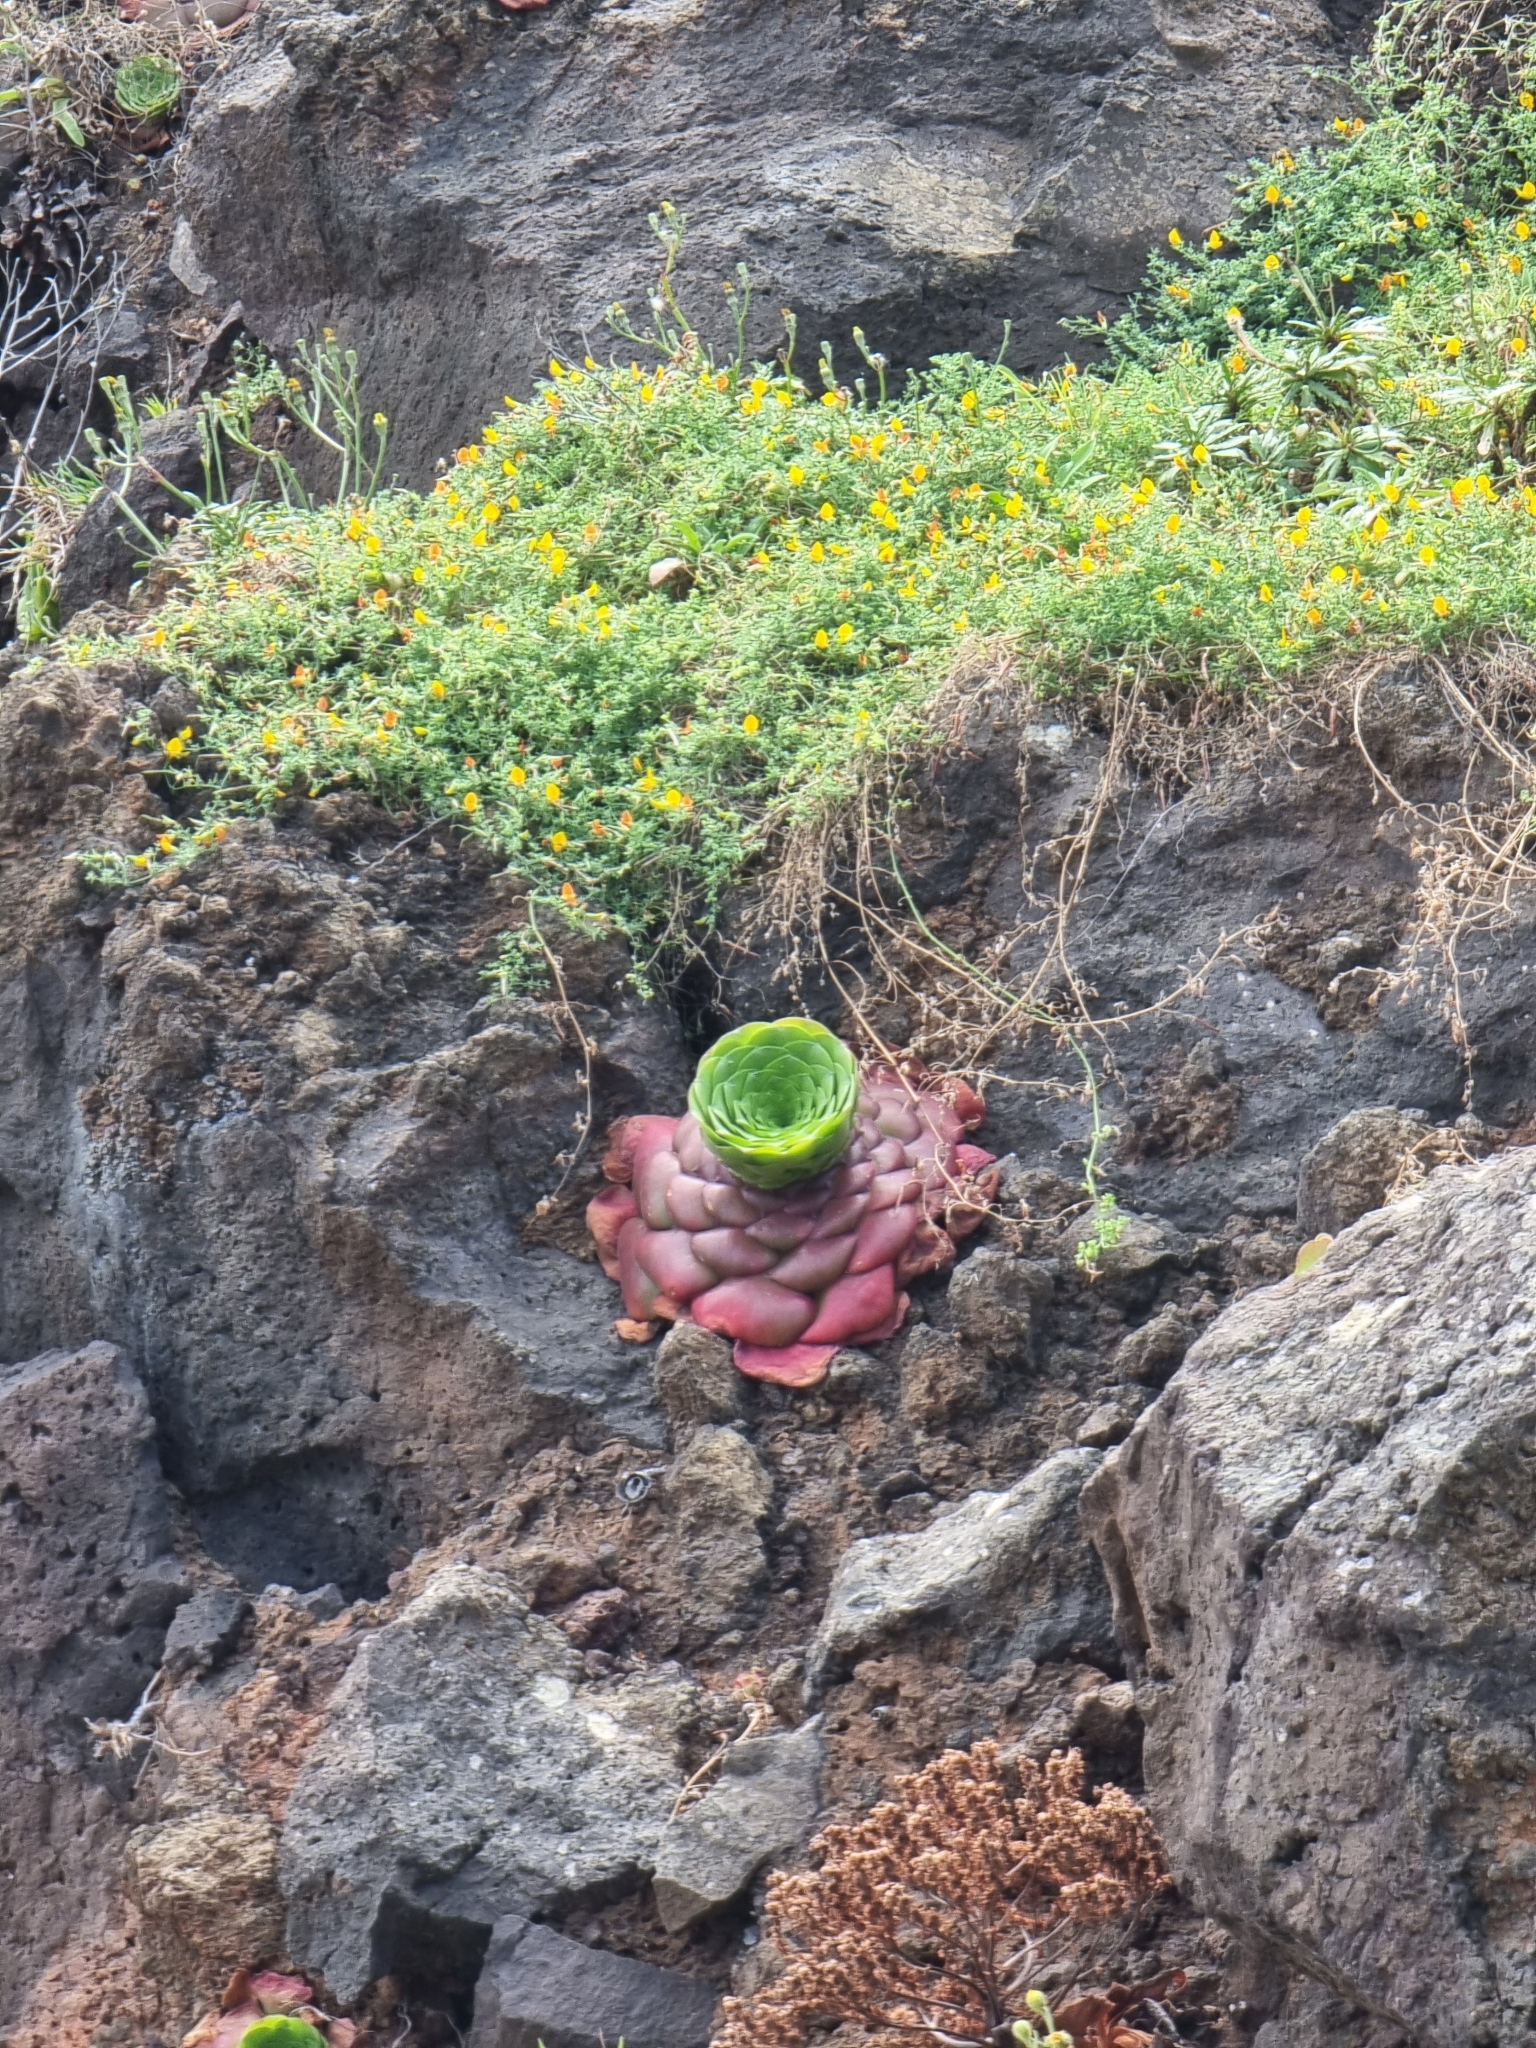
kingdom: Plantae
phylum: Tracheophyta
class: Magnoliopsida
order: Saxifragales
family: Crassulaceae
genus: Aeonium
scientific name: Aeonium glandulosum
